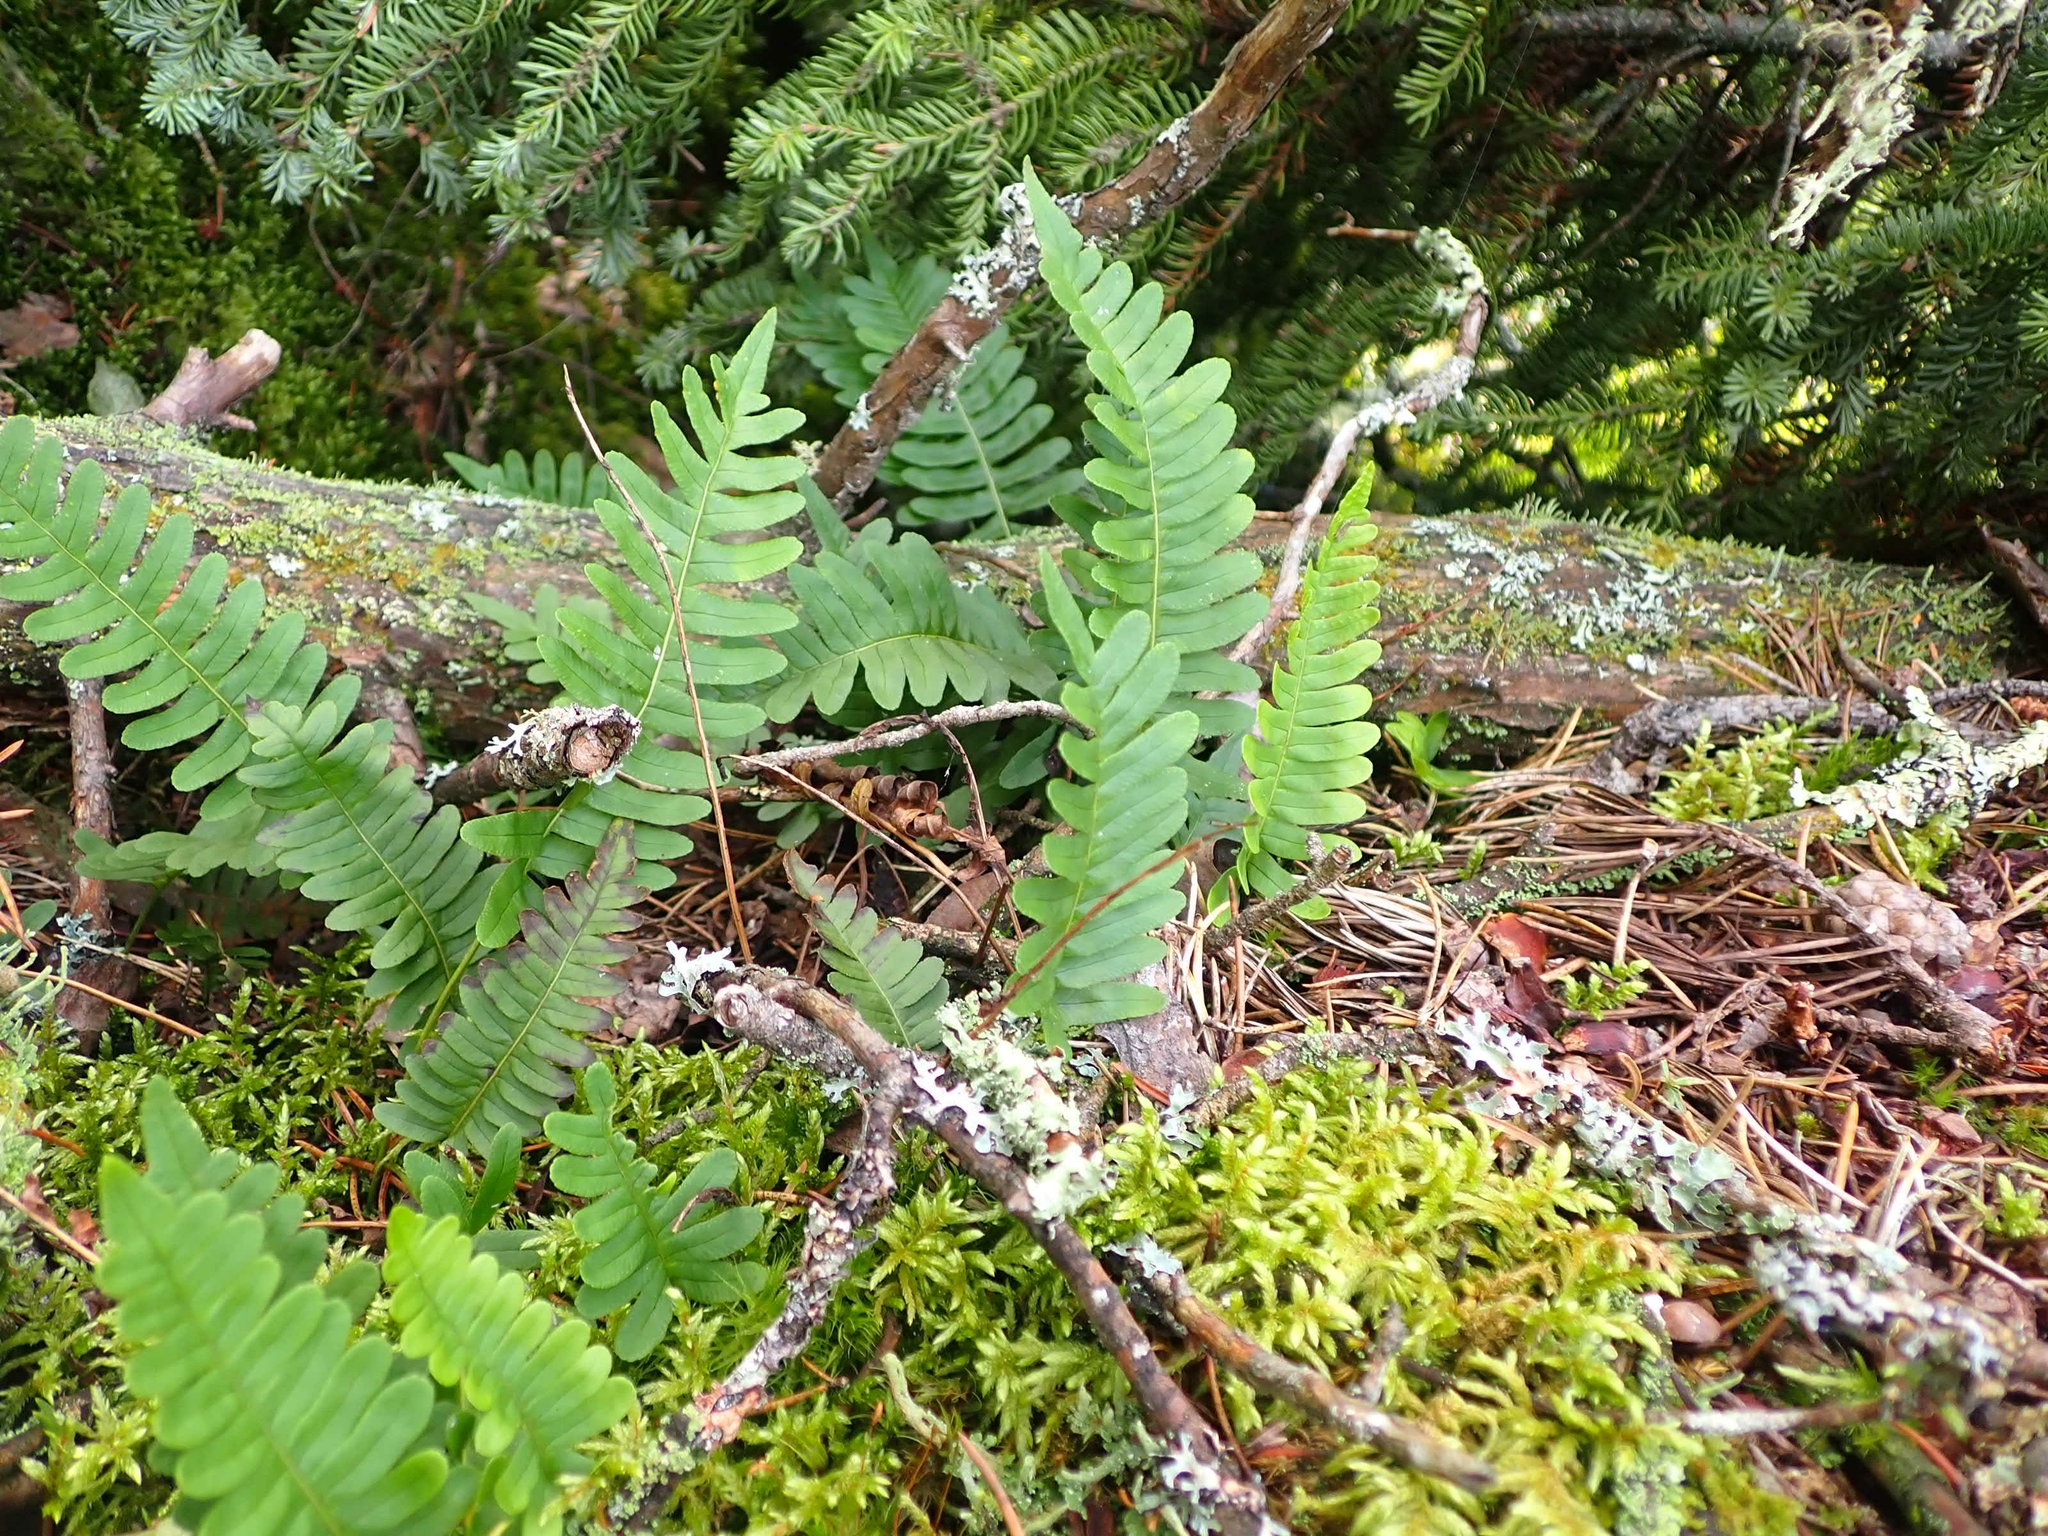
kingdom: Plantae
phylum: Tracheophyta
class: Polypodiopsida
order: Polypodiales
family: Polypodiaceae
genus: Polypodium
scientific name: Polypodium virginianum
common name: American wall fern
